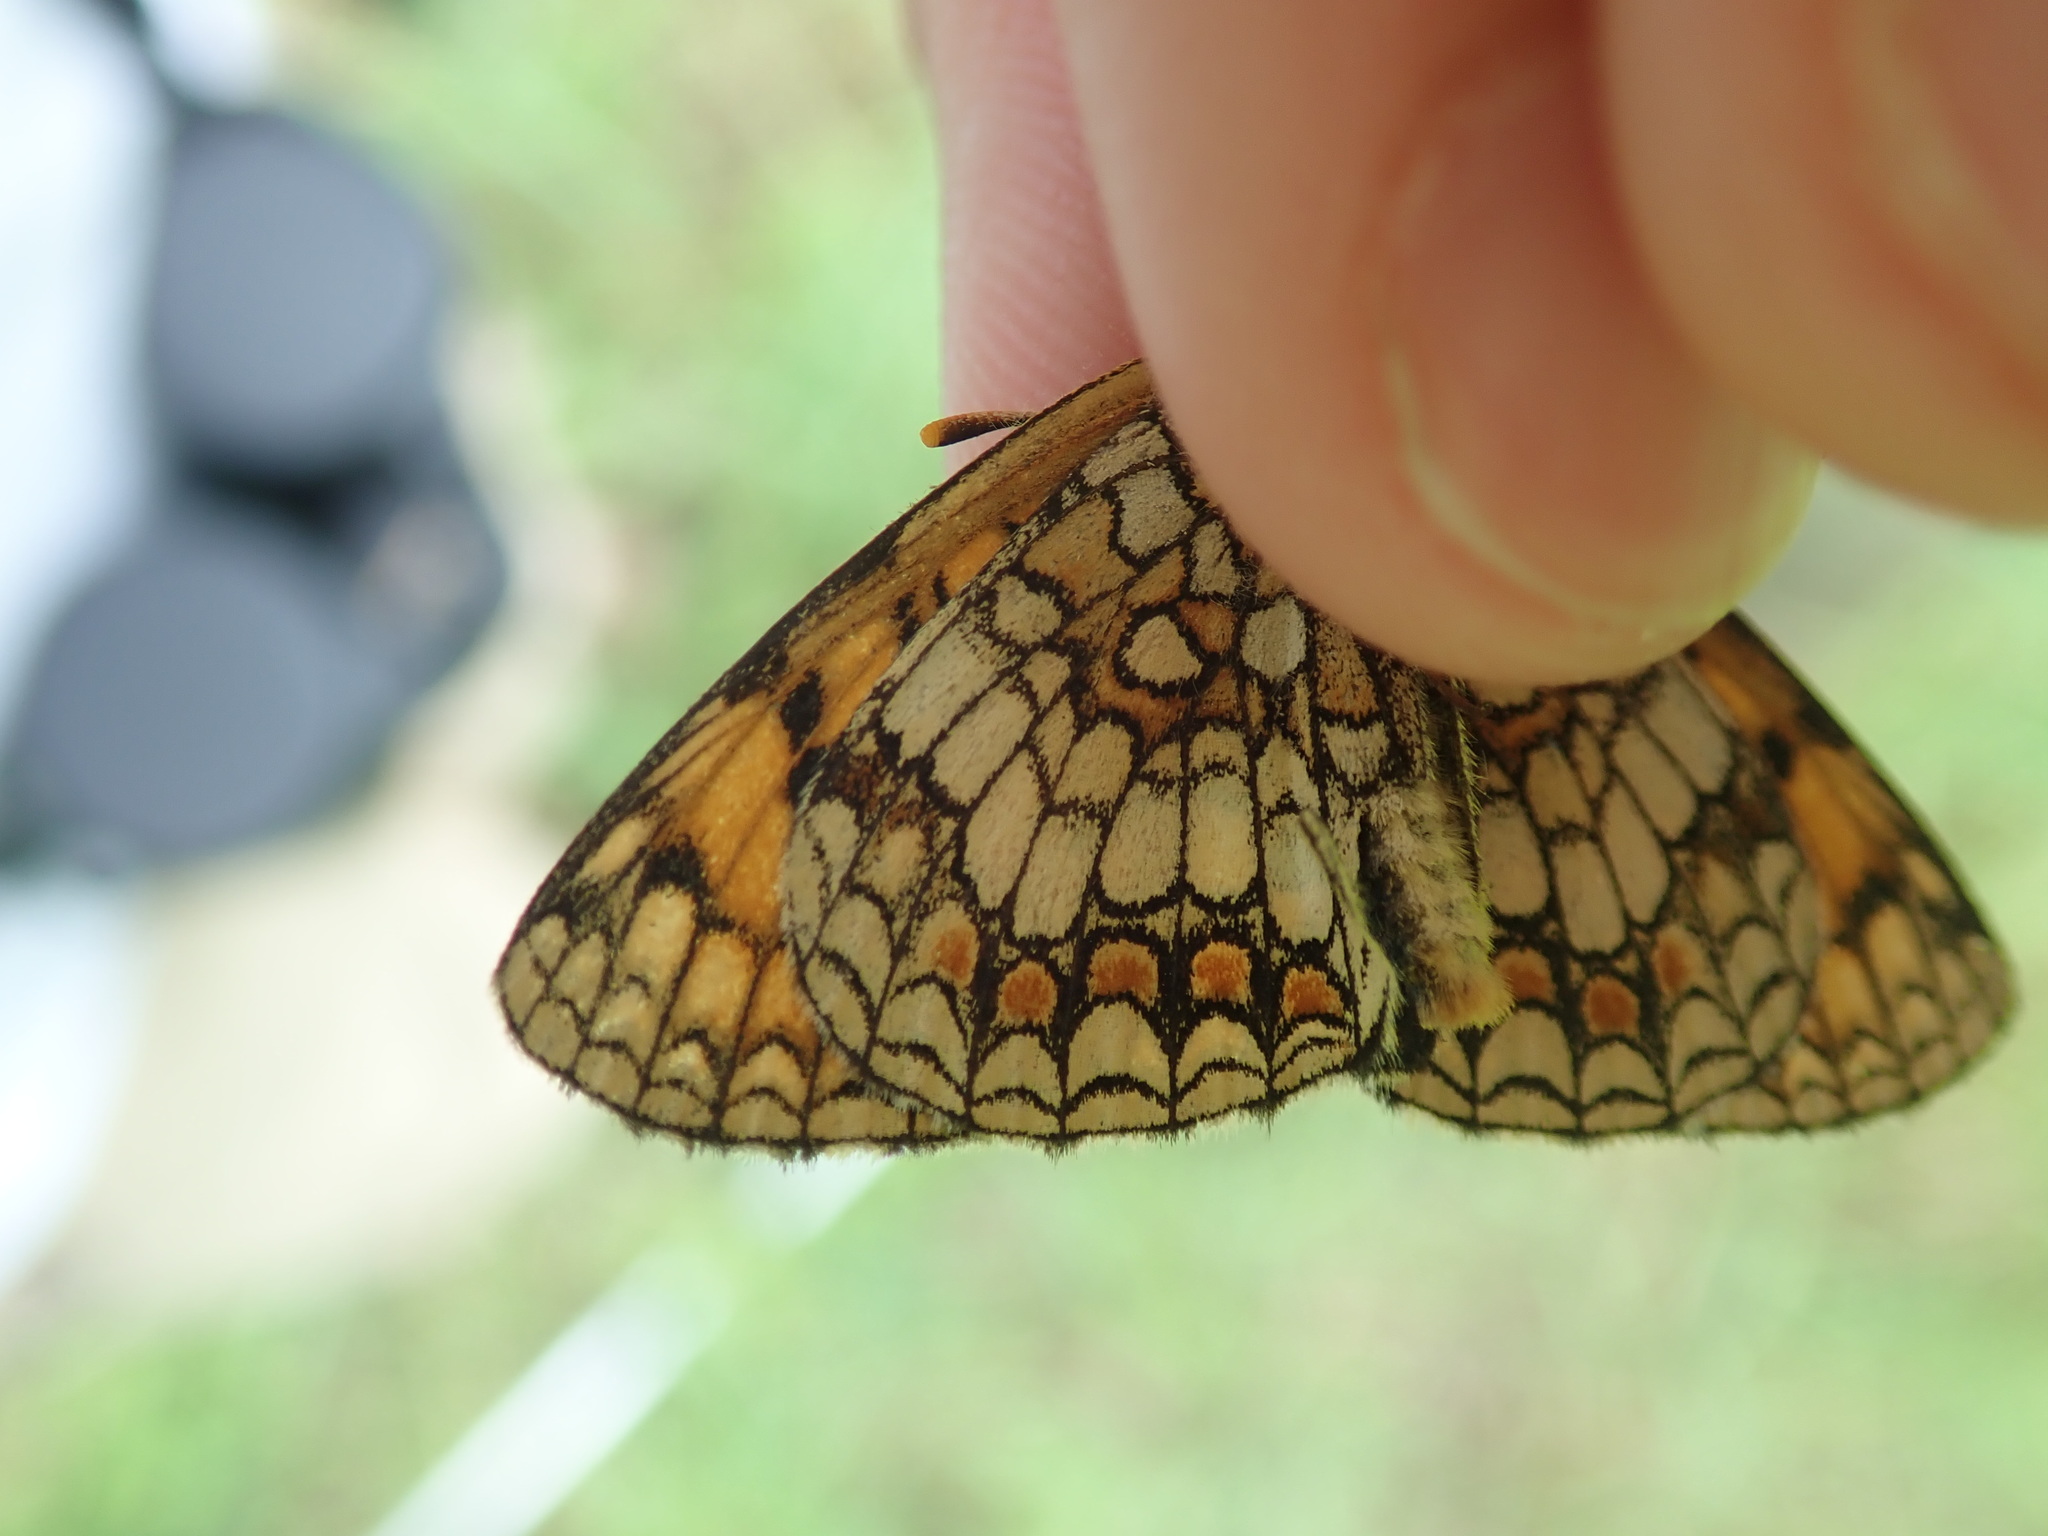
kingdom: Animalia
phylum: Arthropoda
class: Insecta
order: Lepidoptera
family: Nymphalidae
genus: Melitaea
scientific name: Melitaea
